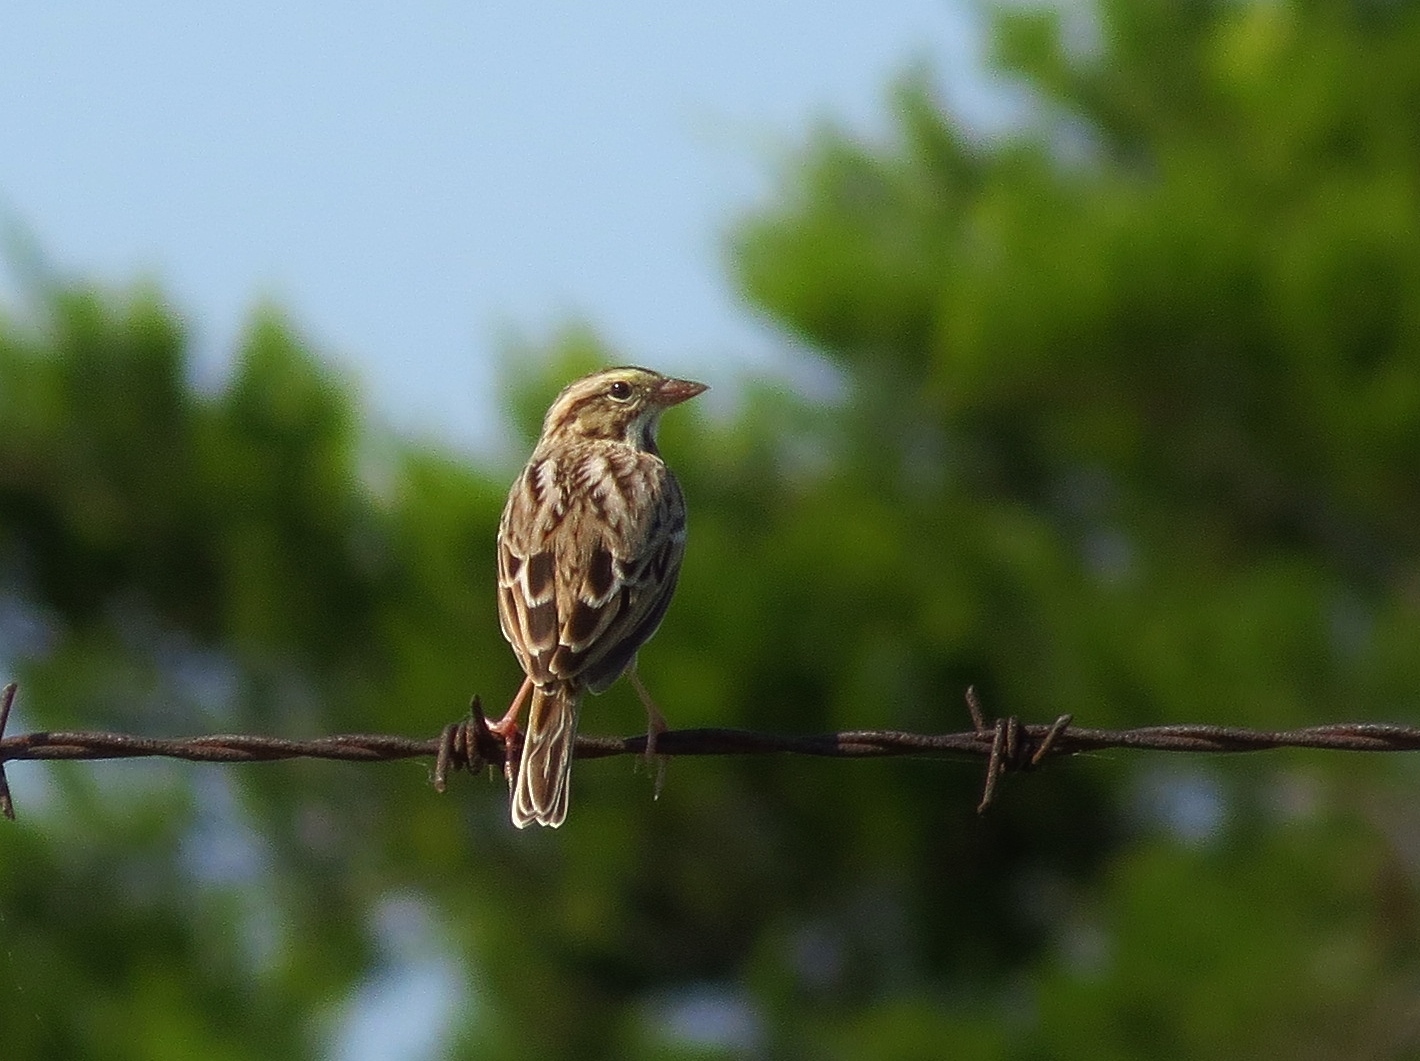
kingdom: Animalia
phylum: Chordata
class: Aves
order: Passeriformes
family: Passerellidae
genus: Passerculus
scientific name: Passerculus sandwichensis
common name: Savannah sparrow
